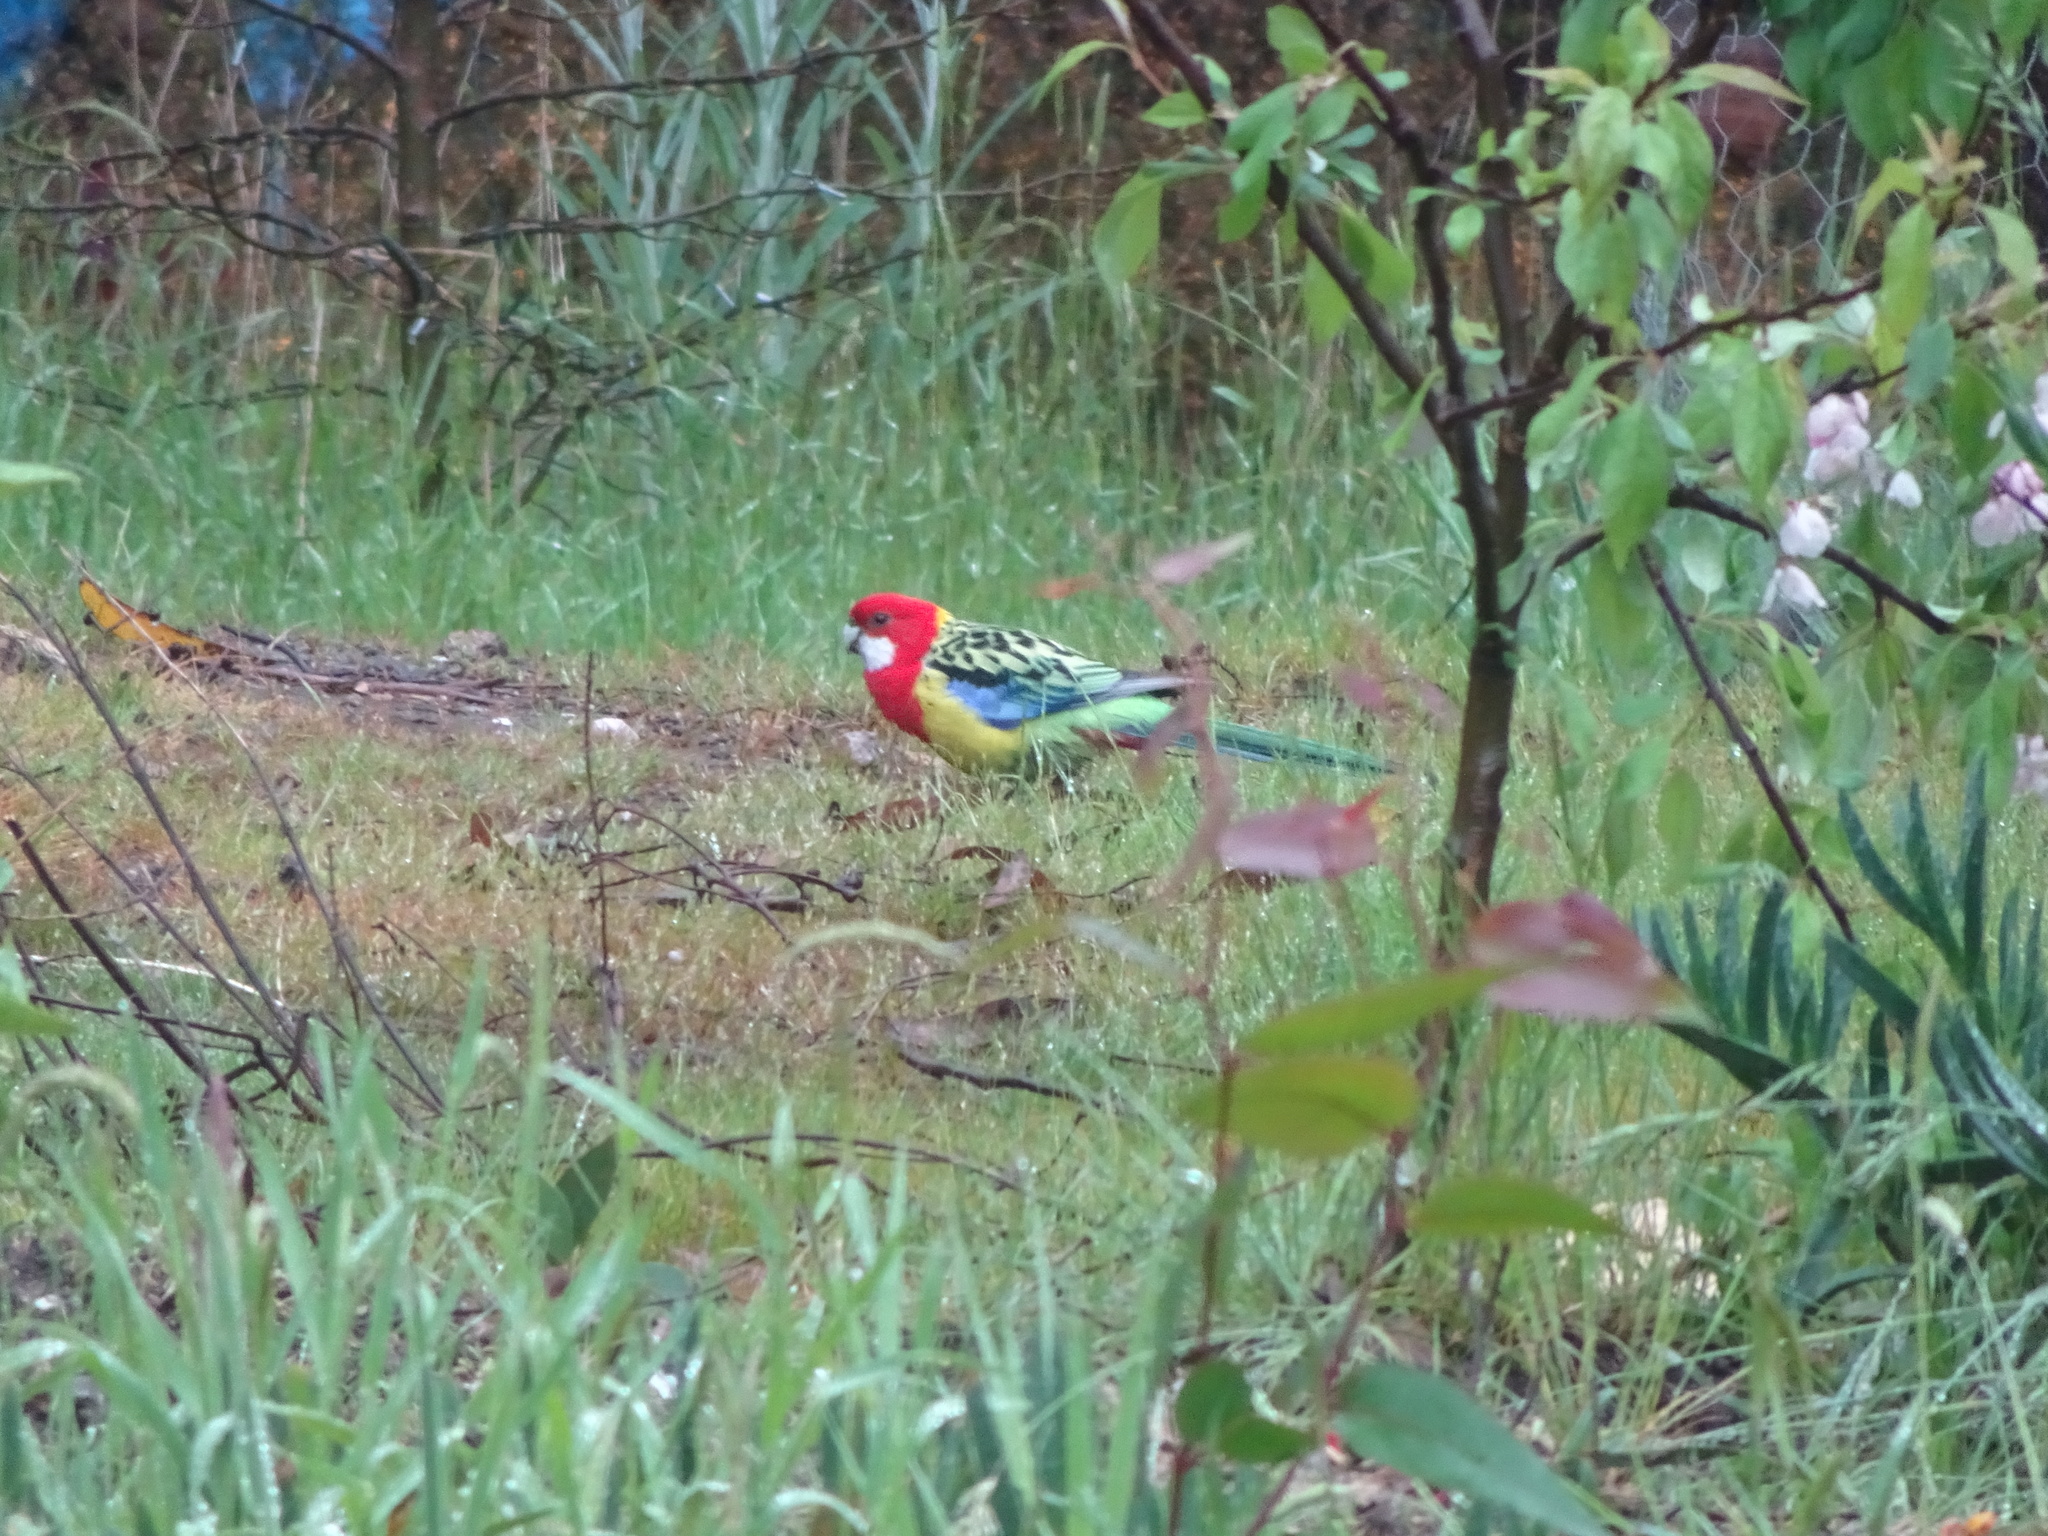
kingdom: Animalia
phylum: Chordata
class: Aves
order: Psittaciformes
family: Psittacidae
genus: Platycercus
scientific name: Platycercus eximius
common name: Eastern rosella
